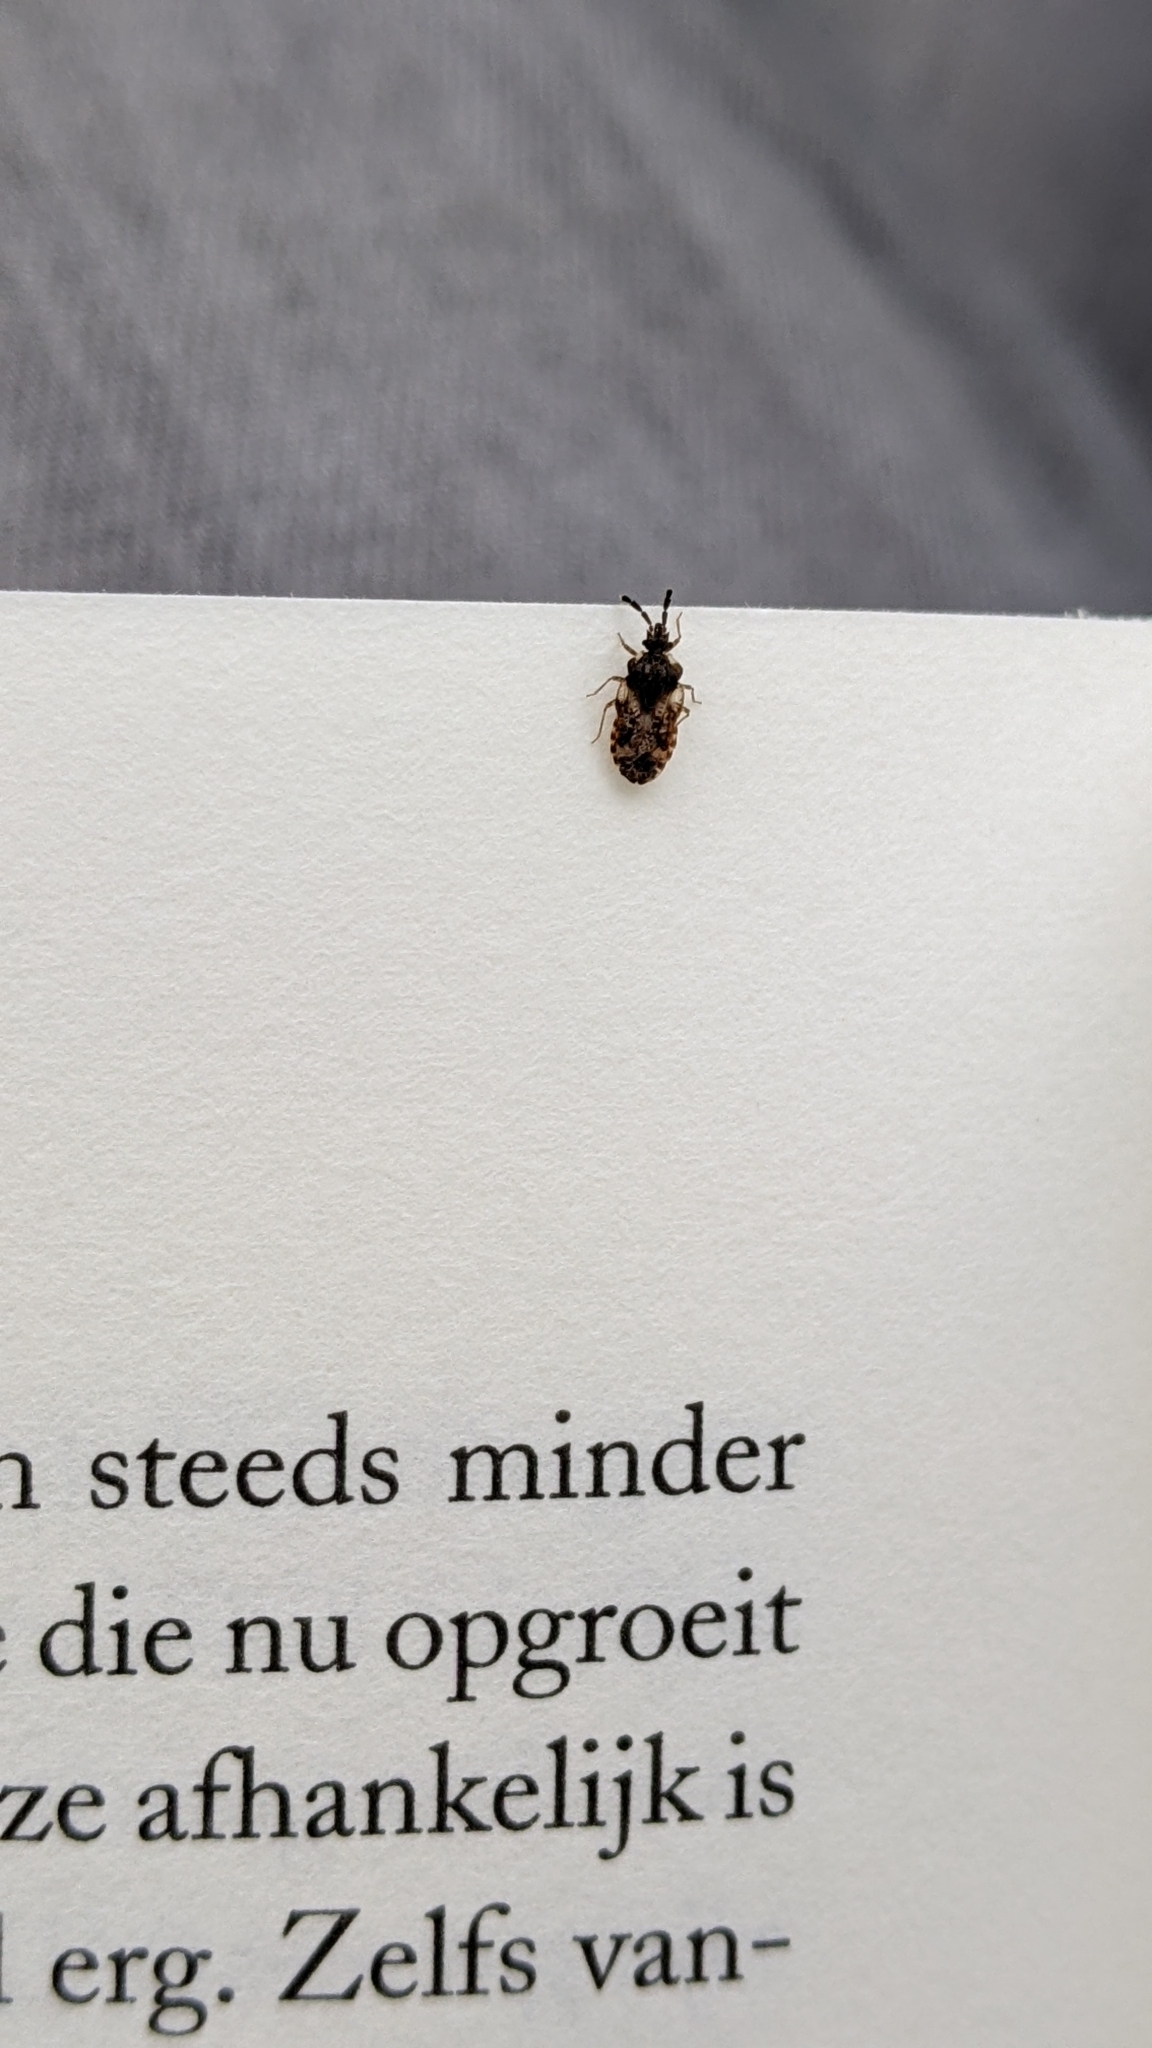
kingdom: Animalia
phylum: Arthropoda
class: Insecta
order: Hemiptera
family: Aradidae
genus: Aradus
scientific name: Aradus depressus
